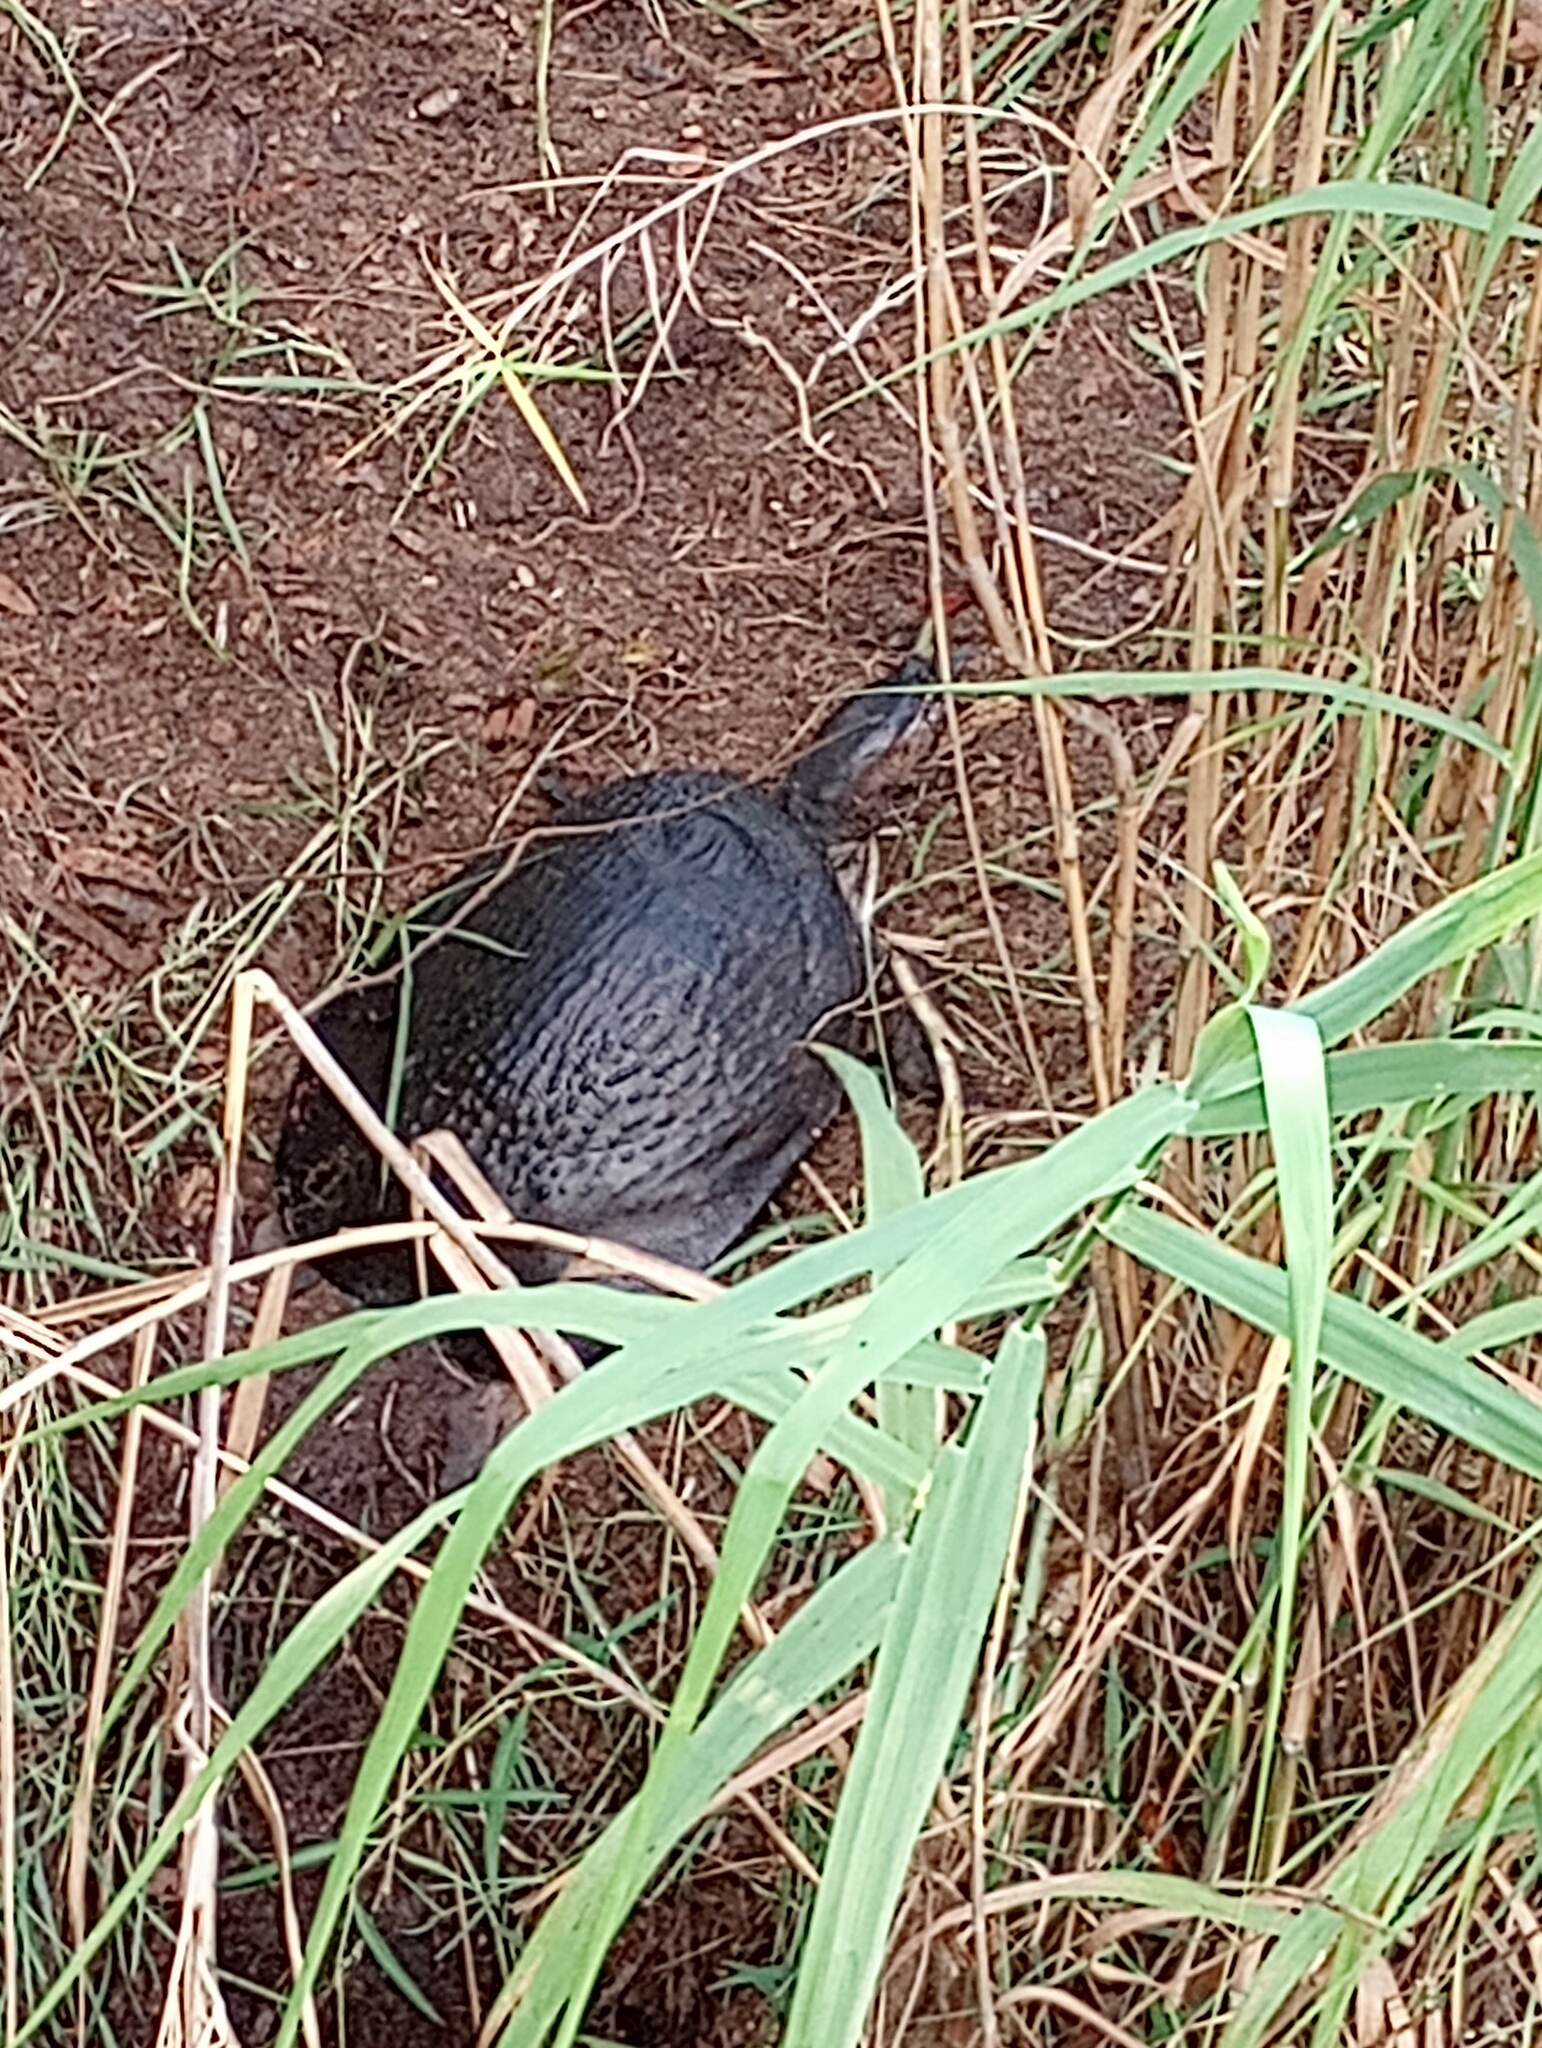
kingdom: Animalia
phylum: Chordata
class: Testudines
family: Trionychidae
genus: Apalone
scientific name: Apalone ferox
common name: Florida softshell turtle
